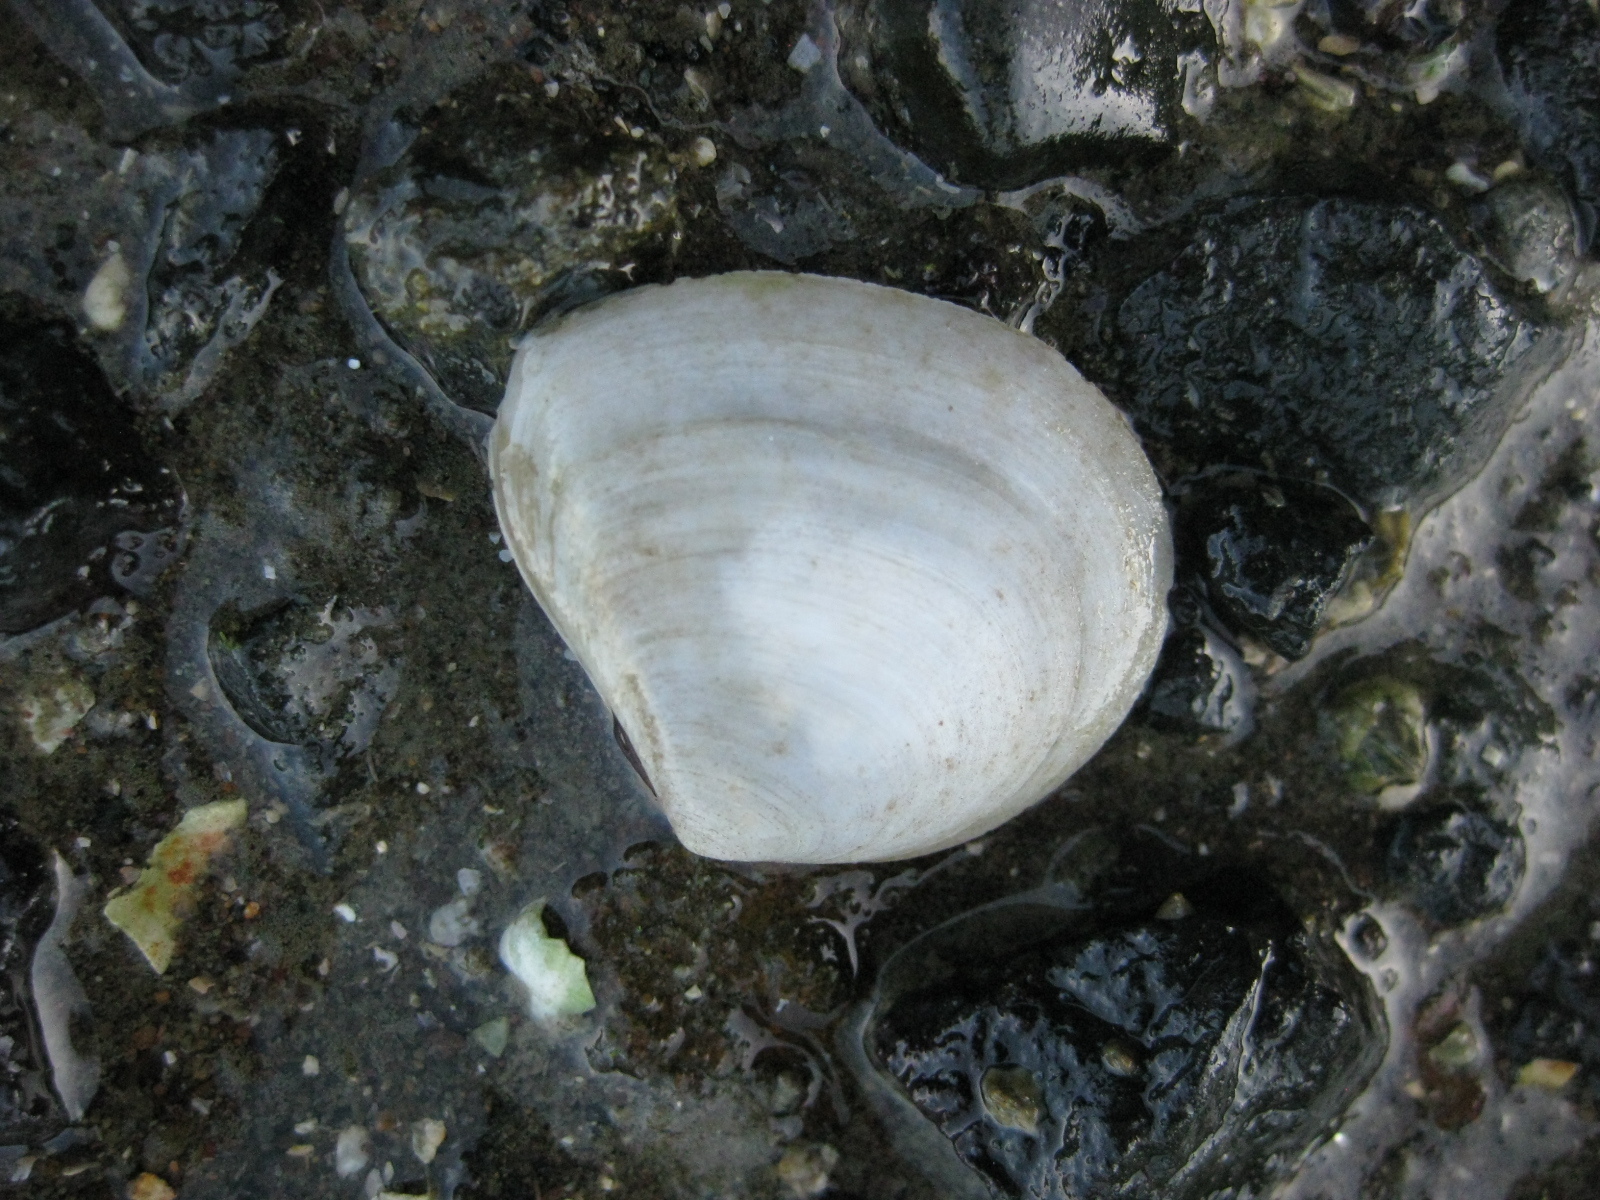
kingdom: Animalia
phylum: Mollusca
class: Bivalvia
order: Cardiida
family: Tellinidae
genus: Macomona
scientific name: Macomona liliana
